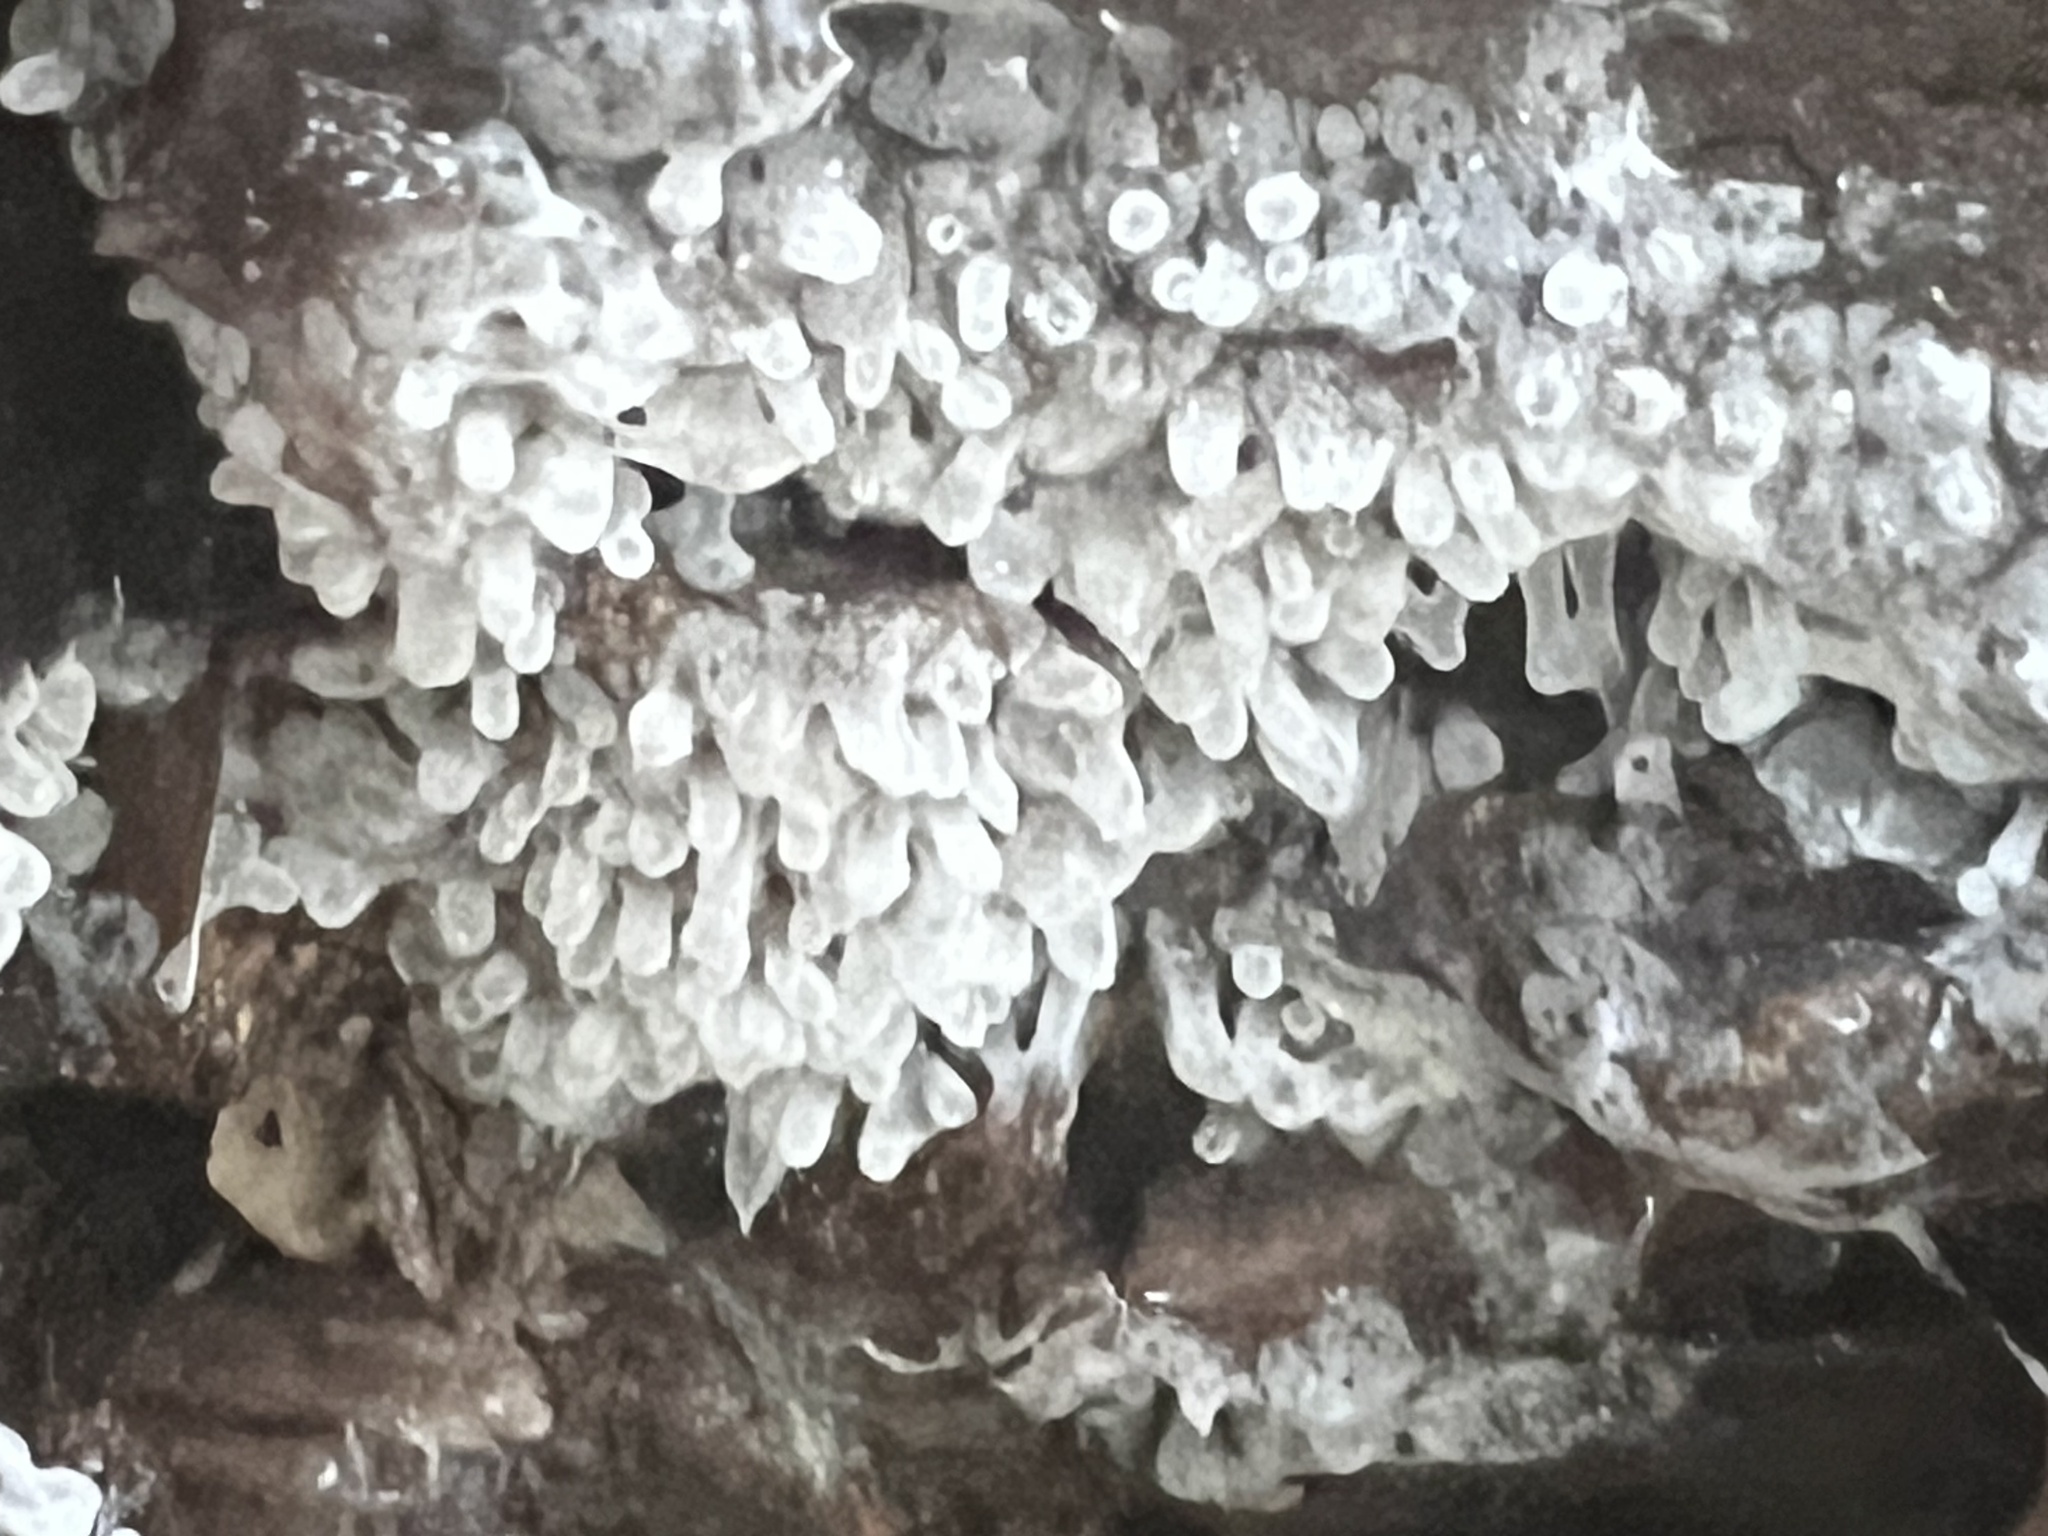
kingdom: Protozoa
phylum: Mycetozoa
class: Protosteliomycetes
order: Ceratiomyxales
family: Ceratiomyxaceae
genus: Ceratiomyxa
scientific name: Ceratiomyxa fruticulosa
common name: Honeycomb coral slime mold
